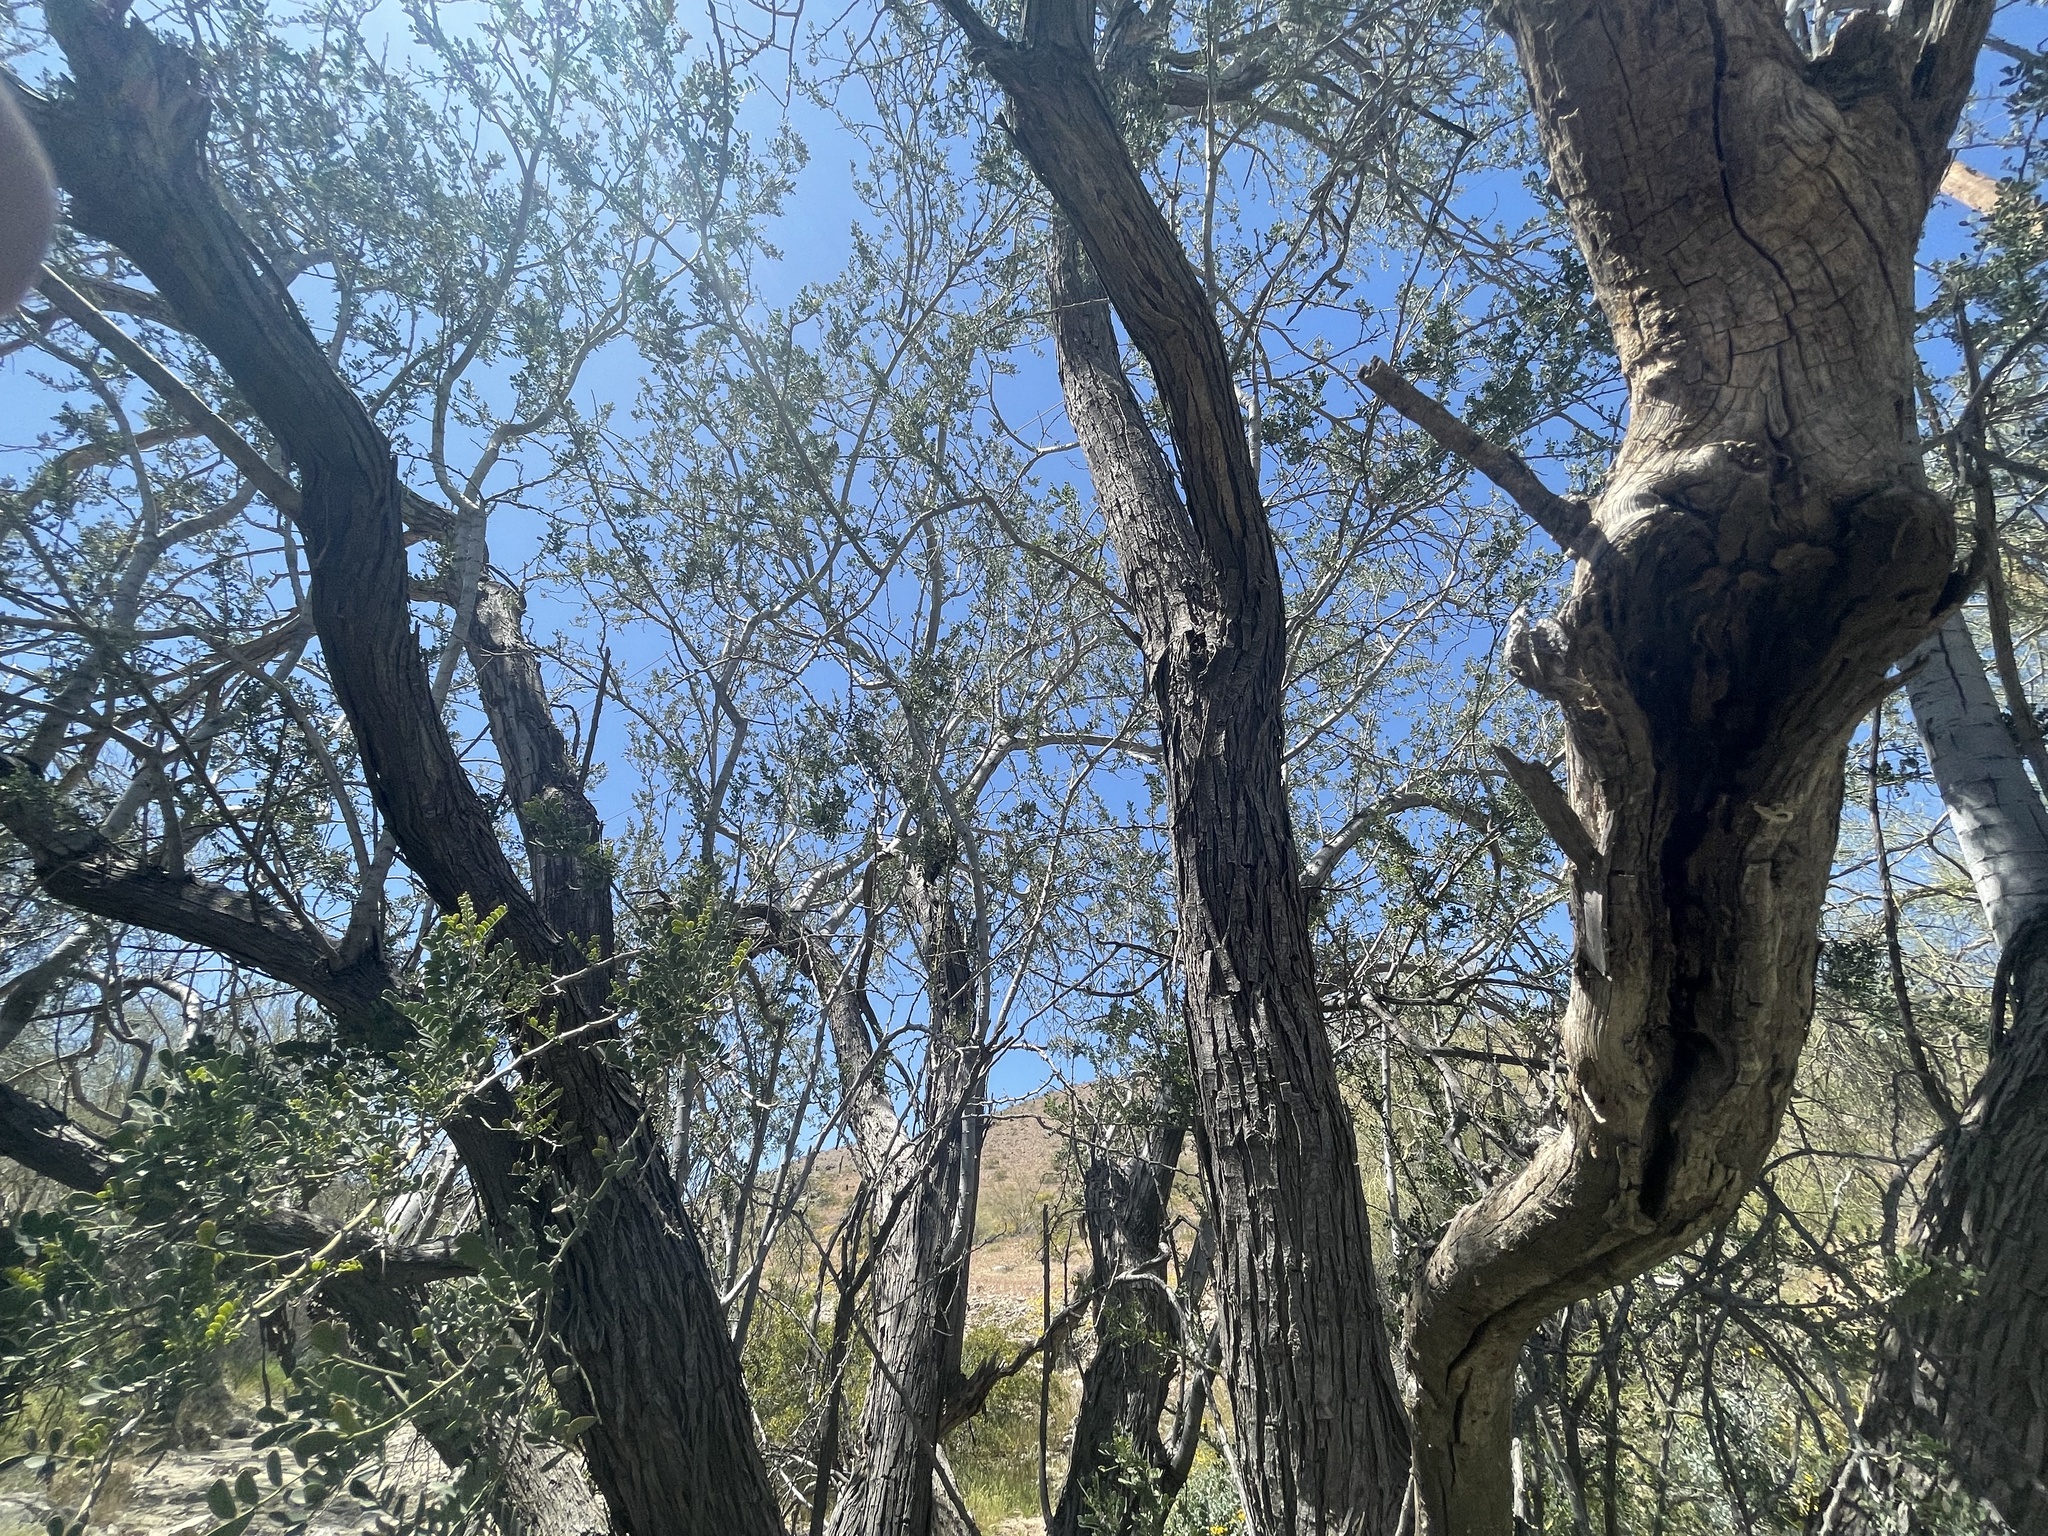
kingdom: Plantae
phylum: Tracheophyta
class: Magnoliopsida
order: Fabales
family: Fabaceae
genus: Olneya
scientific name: Olneya tesota
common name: Desert ironwood
